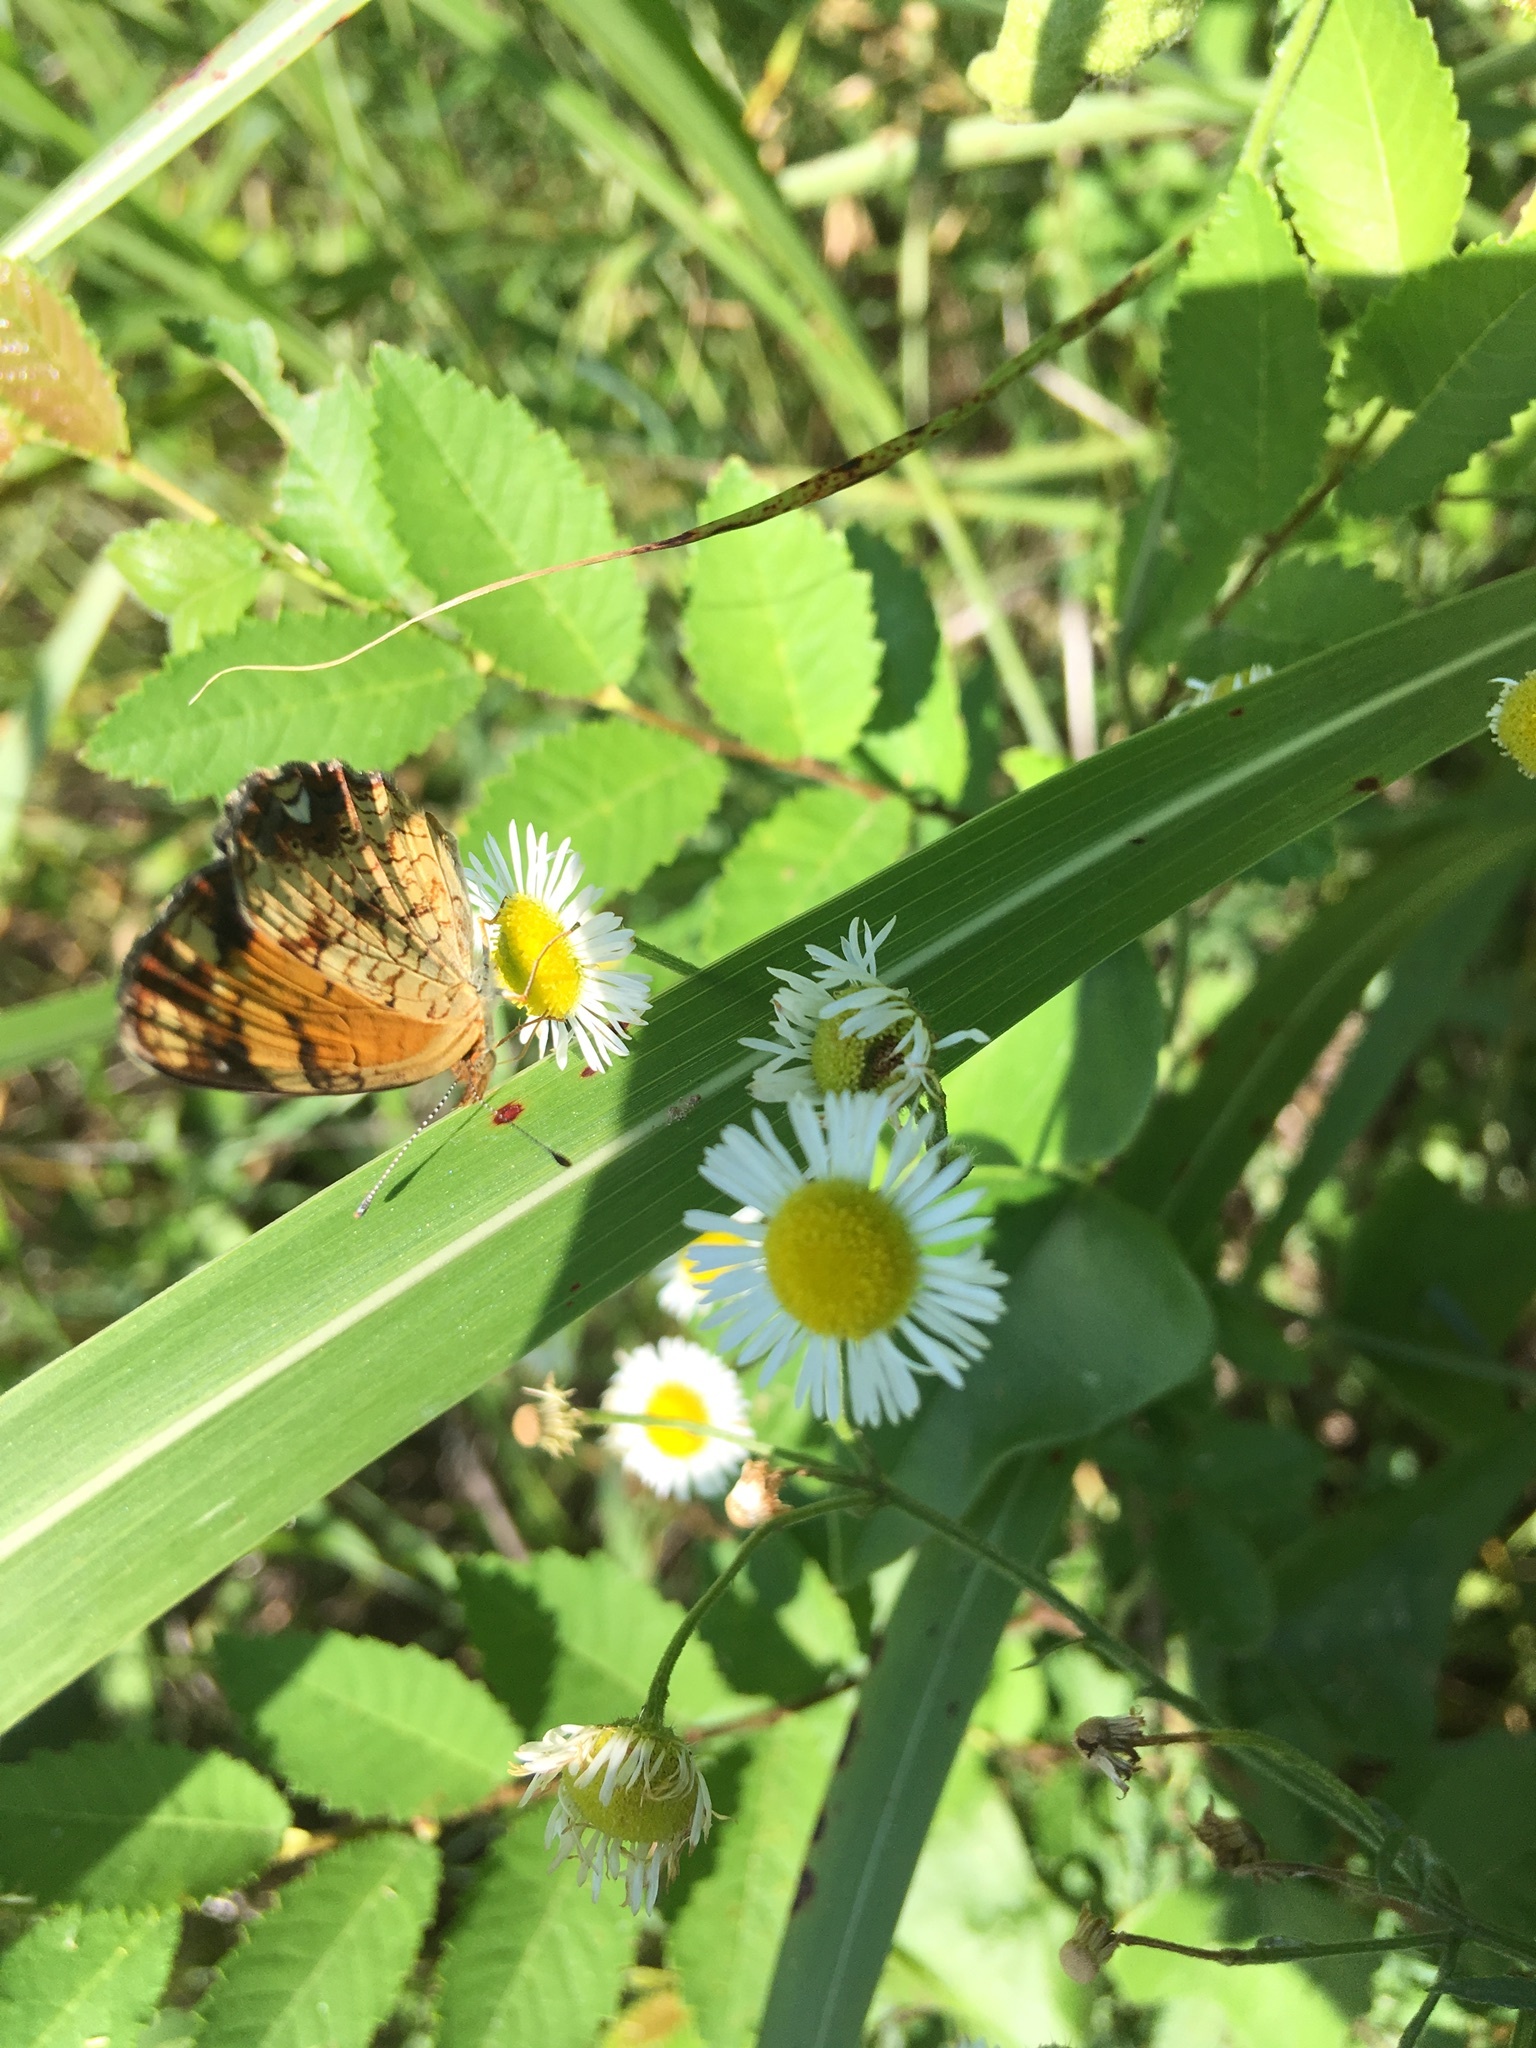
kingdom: Animalia
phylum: Arthropoda
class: Insecta
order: Lepidoptera
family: Nymphalidae
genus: Phyciodes
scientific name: Phyciodes tharos
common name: Pearl crescent
